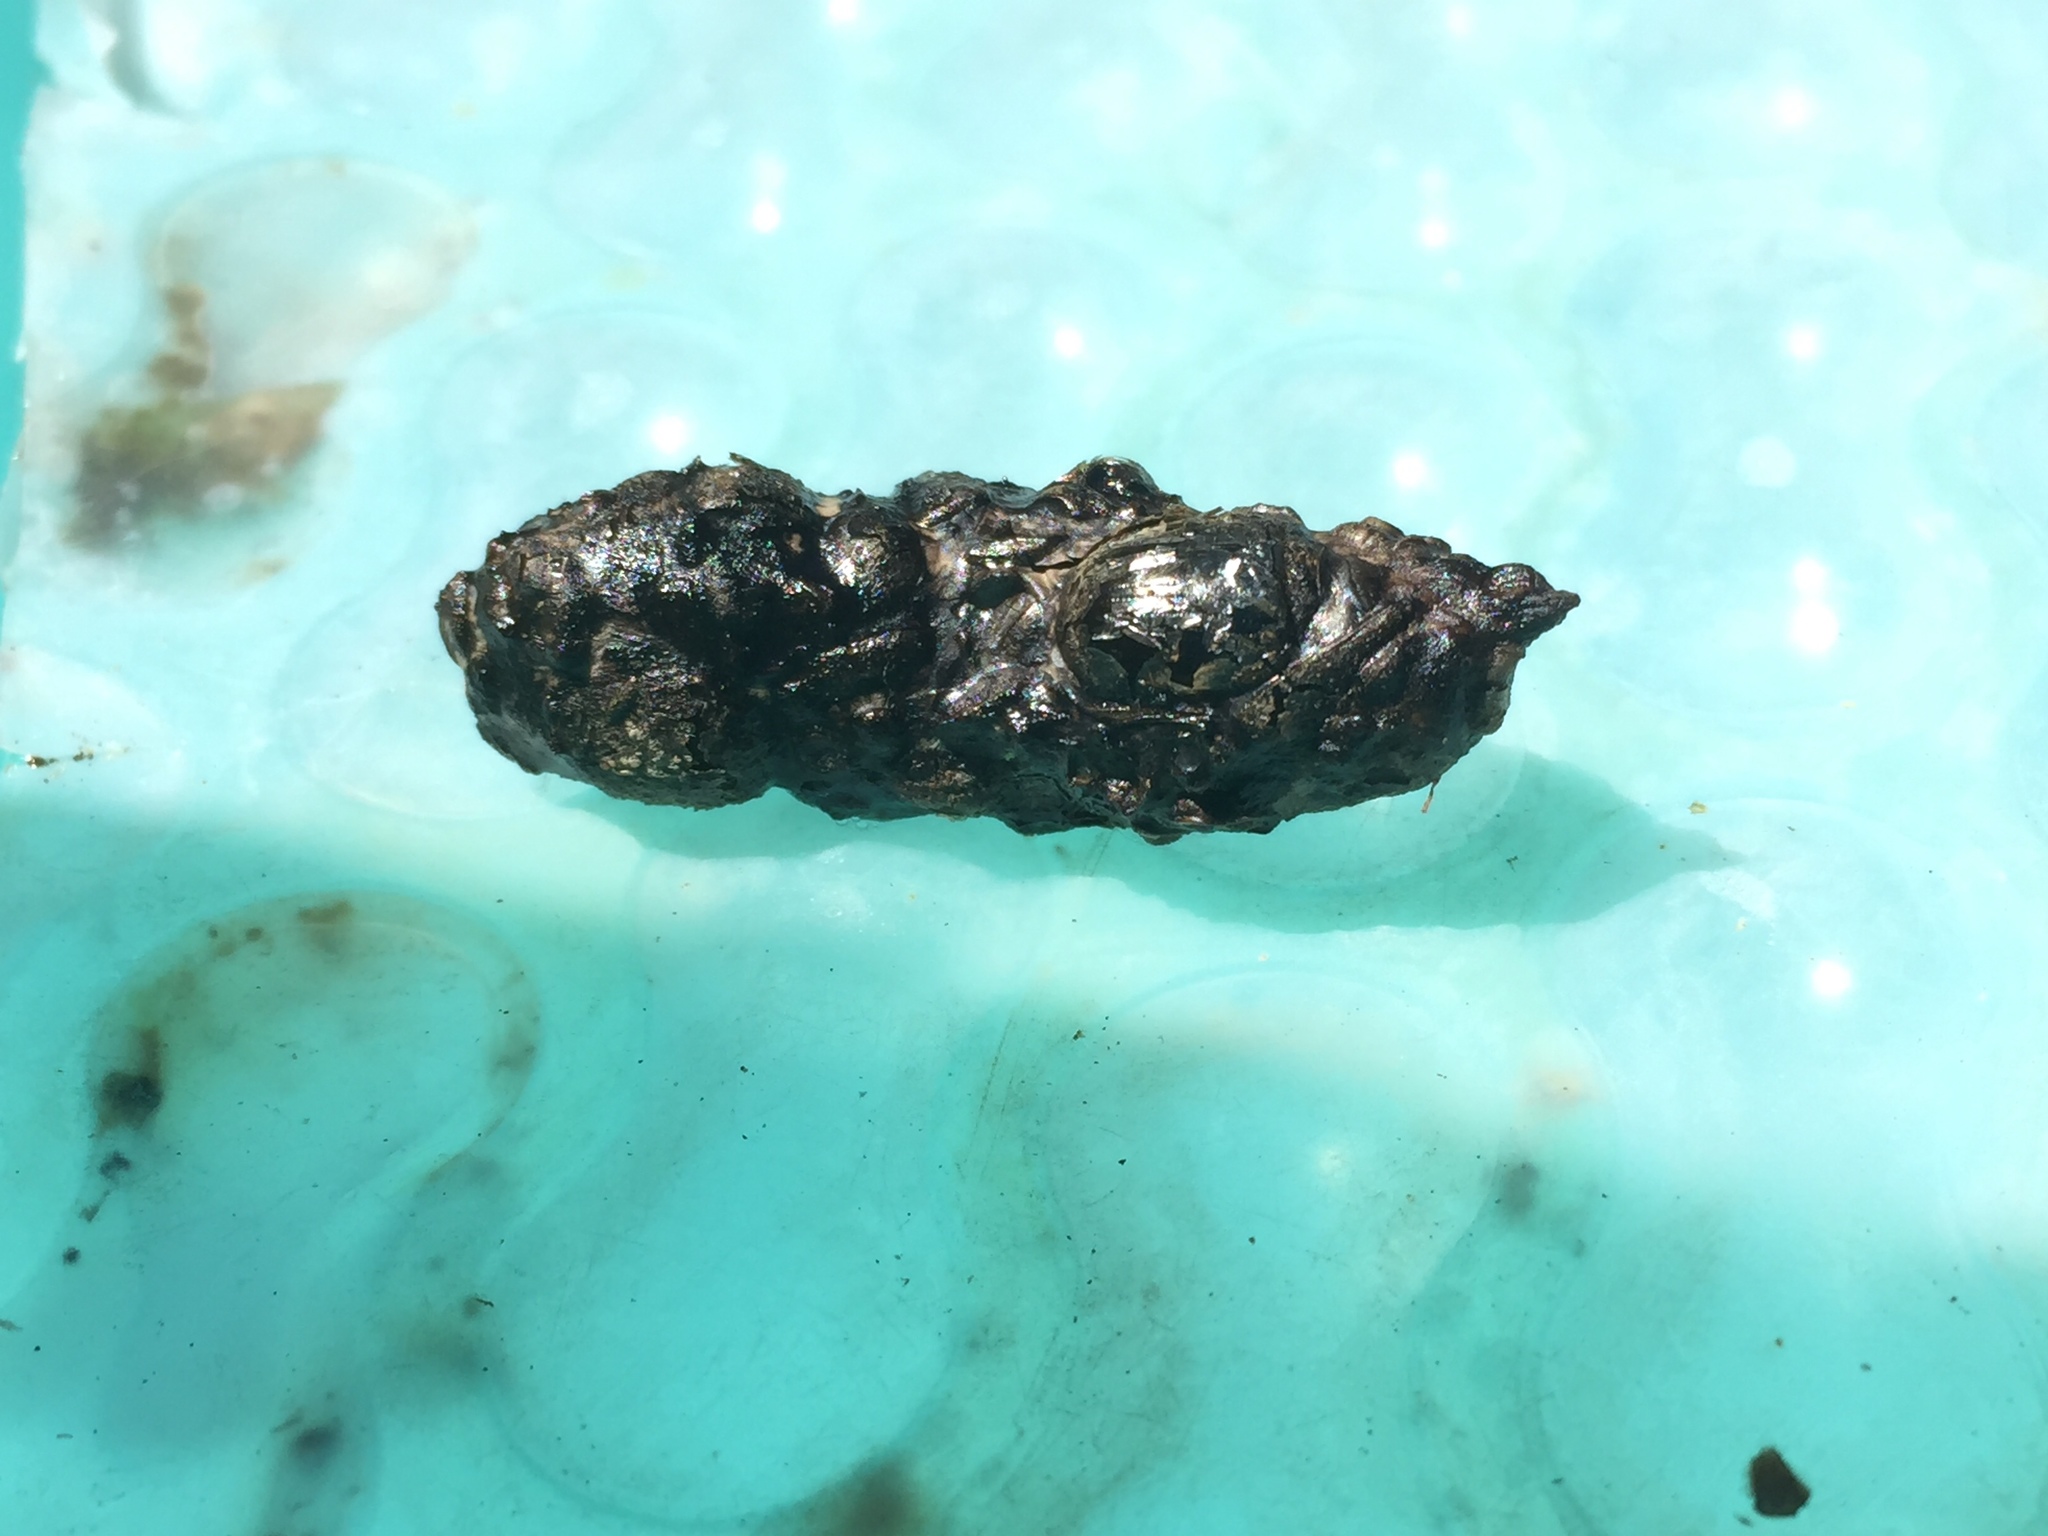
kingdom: Animalia
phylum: Chordata
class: Amphibia
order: Anura
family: Bufonidae
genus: Sclerophrys
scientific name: Sclerophrys pantherina
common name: Panther toad
